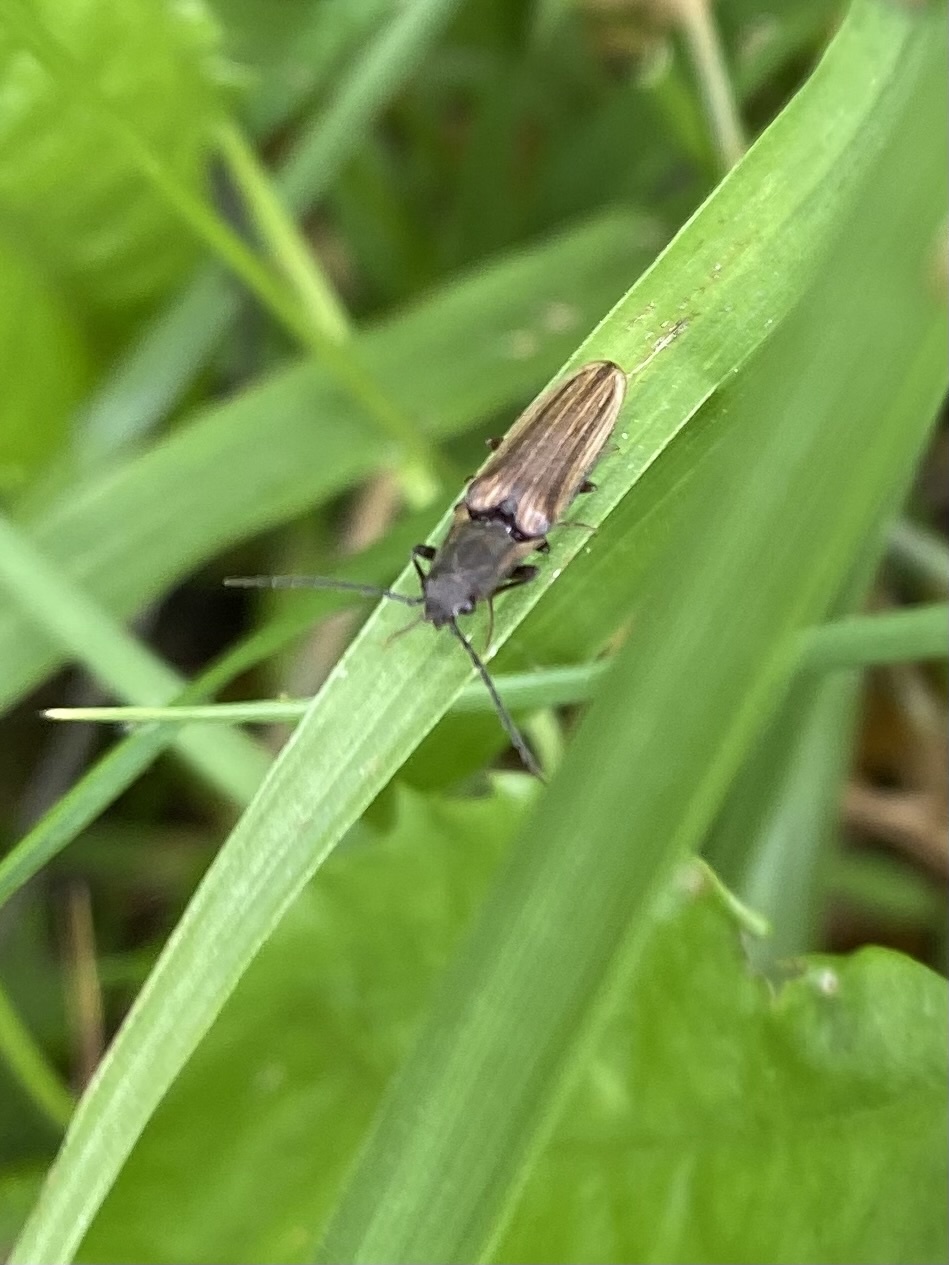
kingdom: Animalia
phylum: Arthropoda
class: Insecta
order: Coleoptera
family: Elateridae
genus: Euplastius
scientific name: Euplastius
